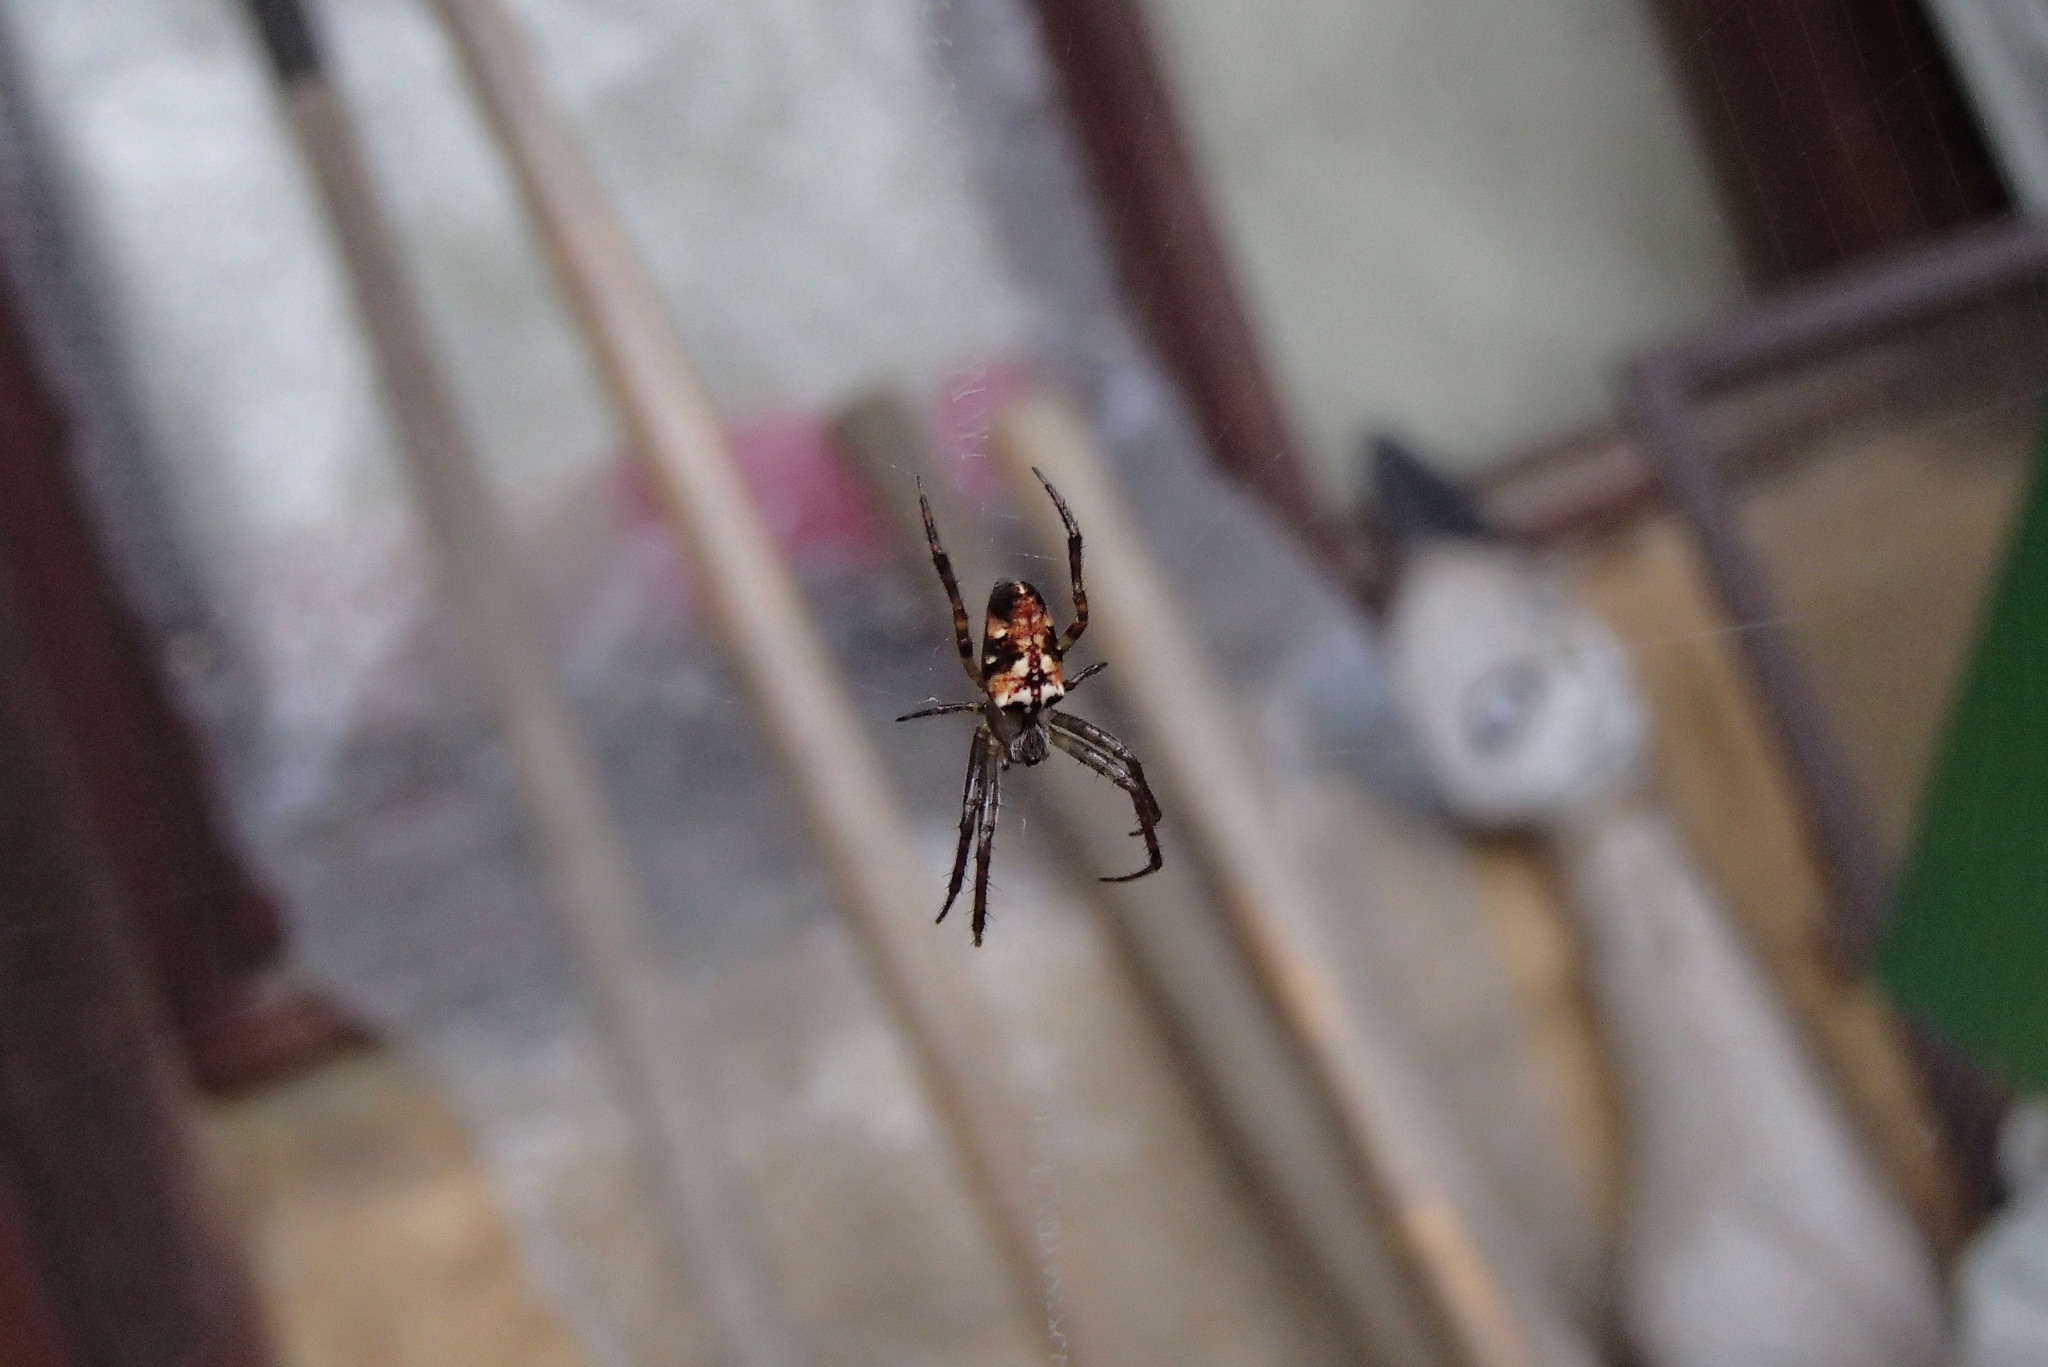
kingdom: Animalia
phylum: Arthropoda
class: Arachnida
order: Araneae
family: Araneidae
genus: Plebs
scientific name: Plebs eburnus
